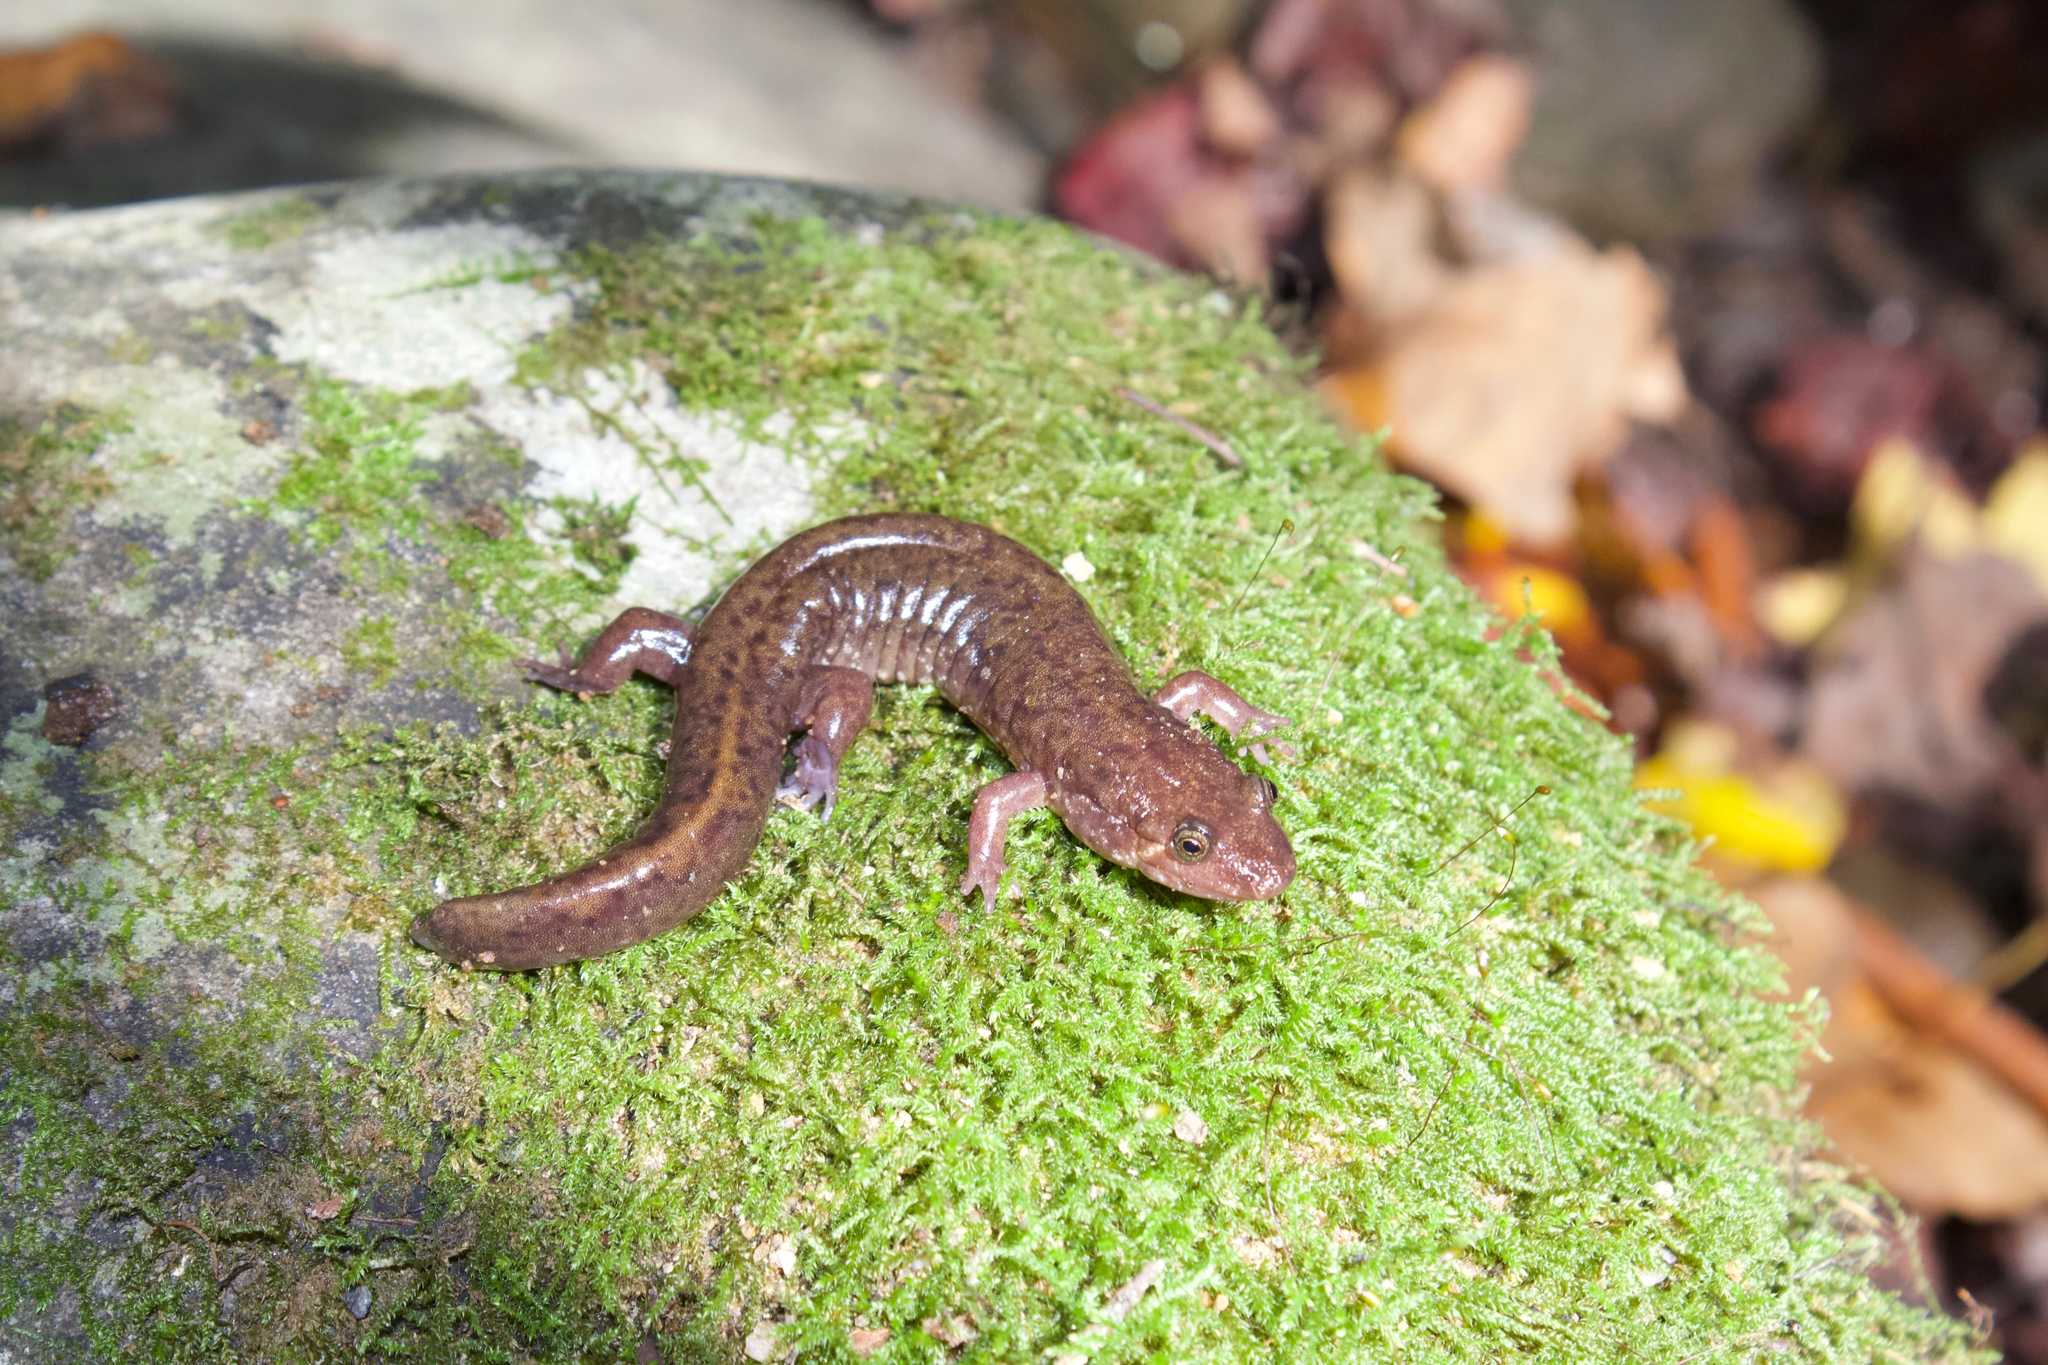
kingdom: Animalia
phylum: Chordata
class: Amphibia
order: Caudata
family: Plethodontidae
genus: Desmognathus
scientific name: Desmognathus monticola
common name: Seal salamander
